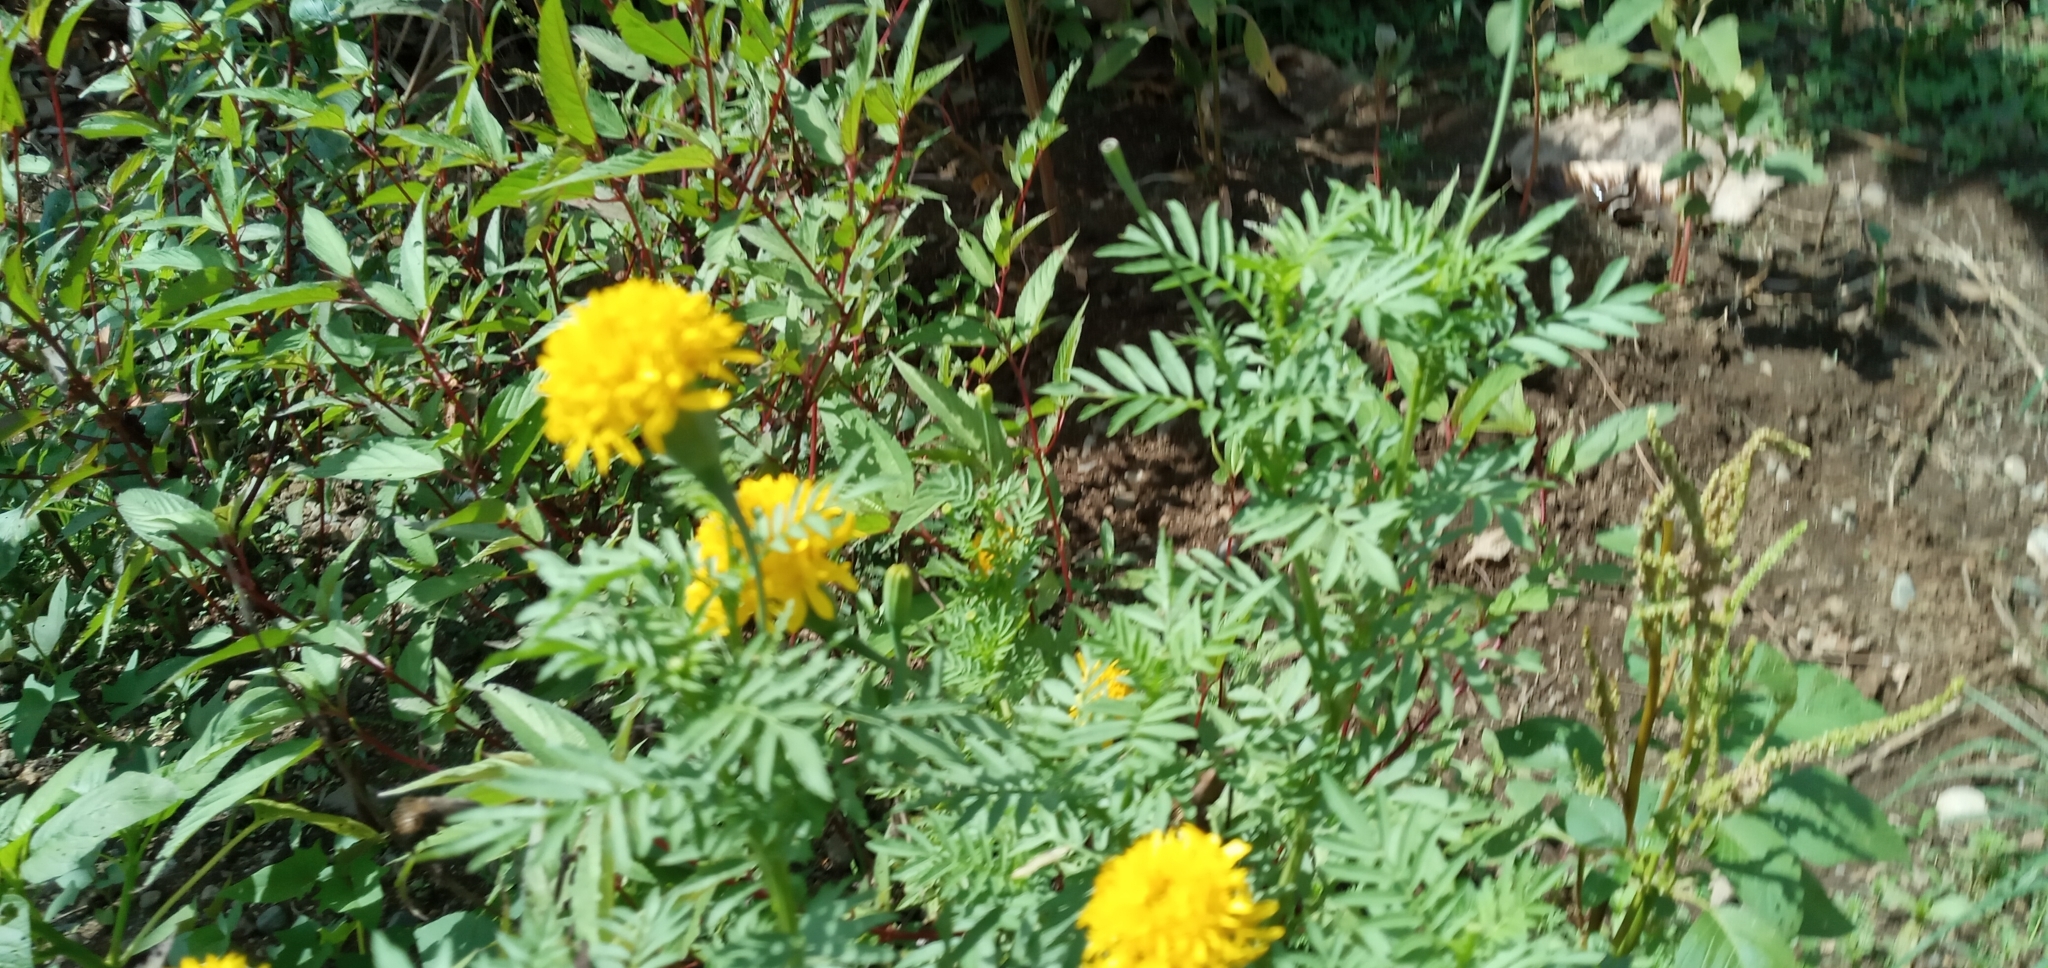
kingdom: Plantae
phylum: Tracheophyta
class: Magnoliopsida
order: Asterales
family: Asteraceae
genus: Tagetes
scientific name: Tagetes erecta
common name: African marigold
